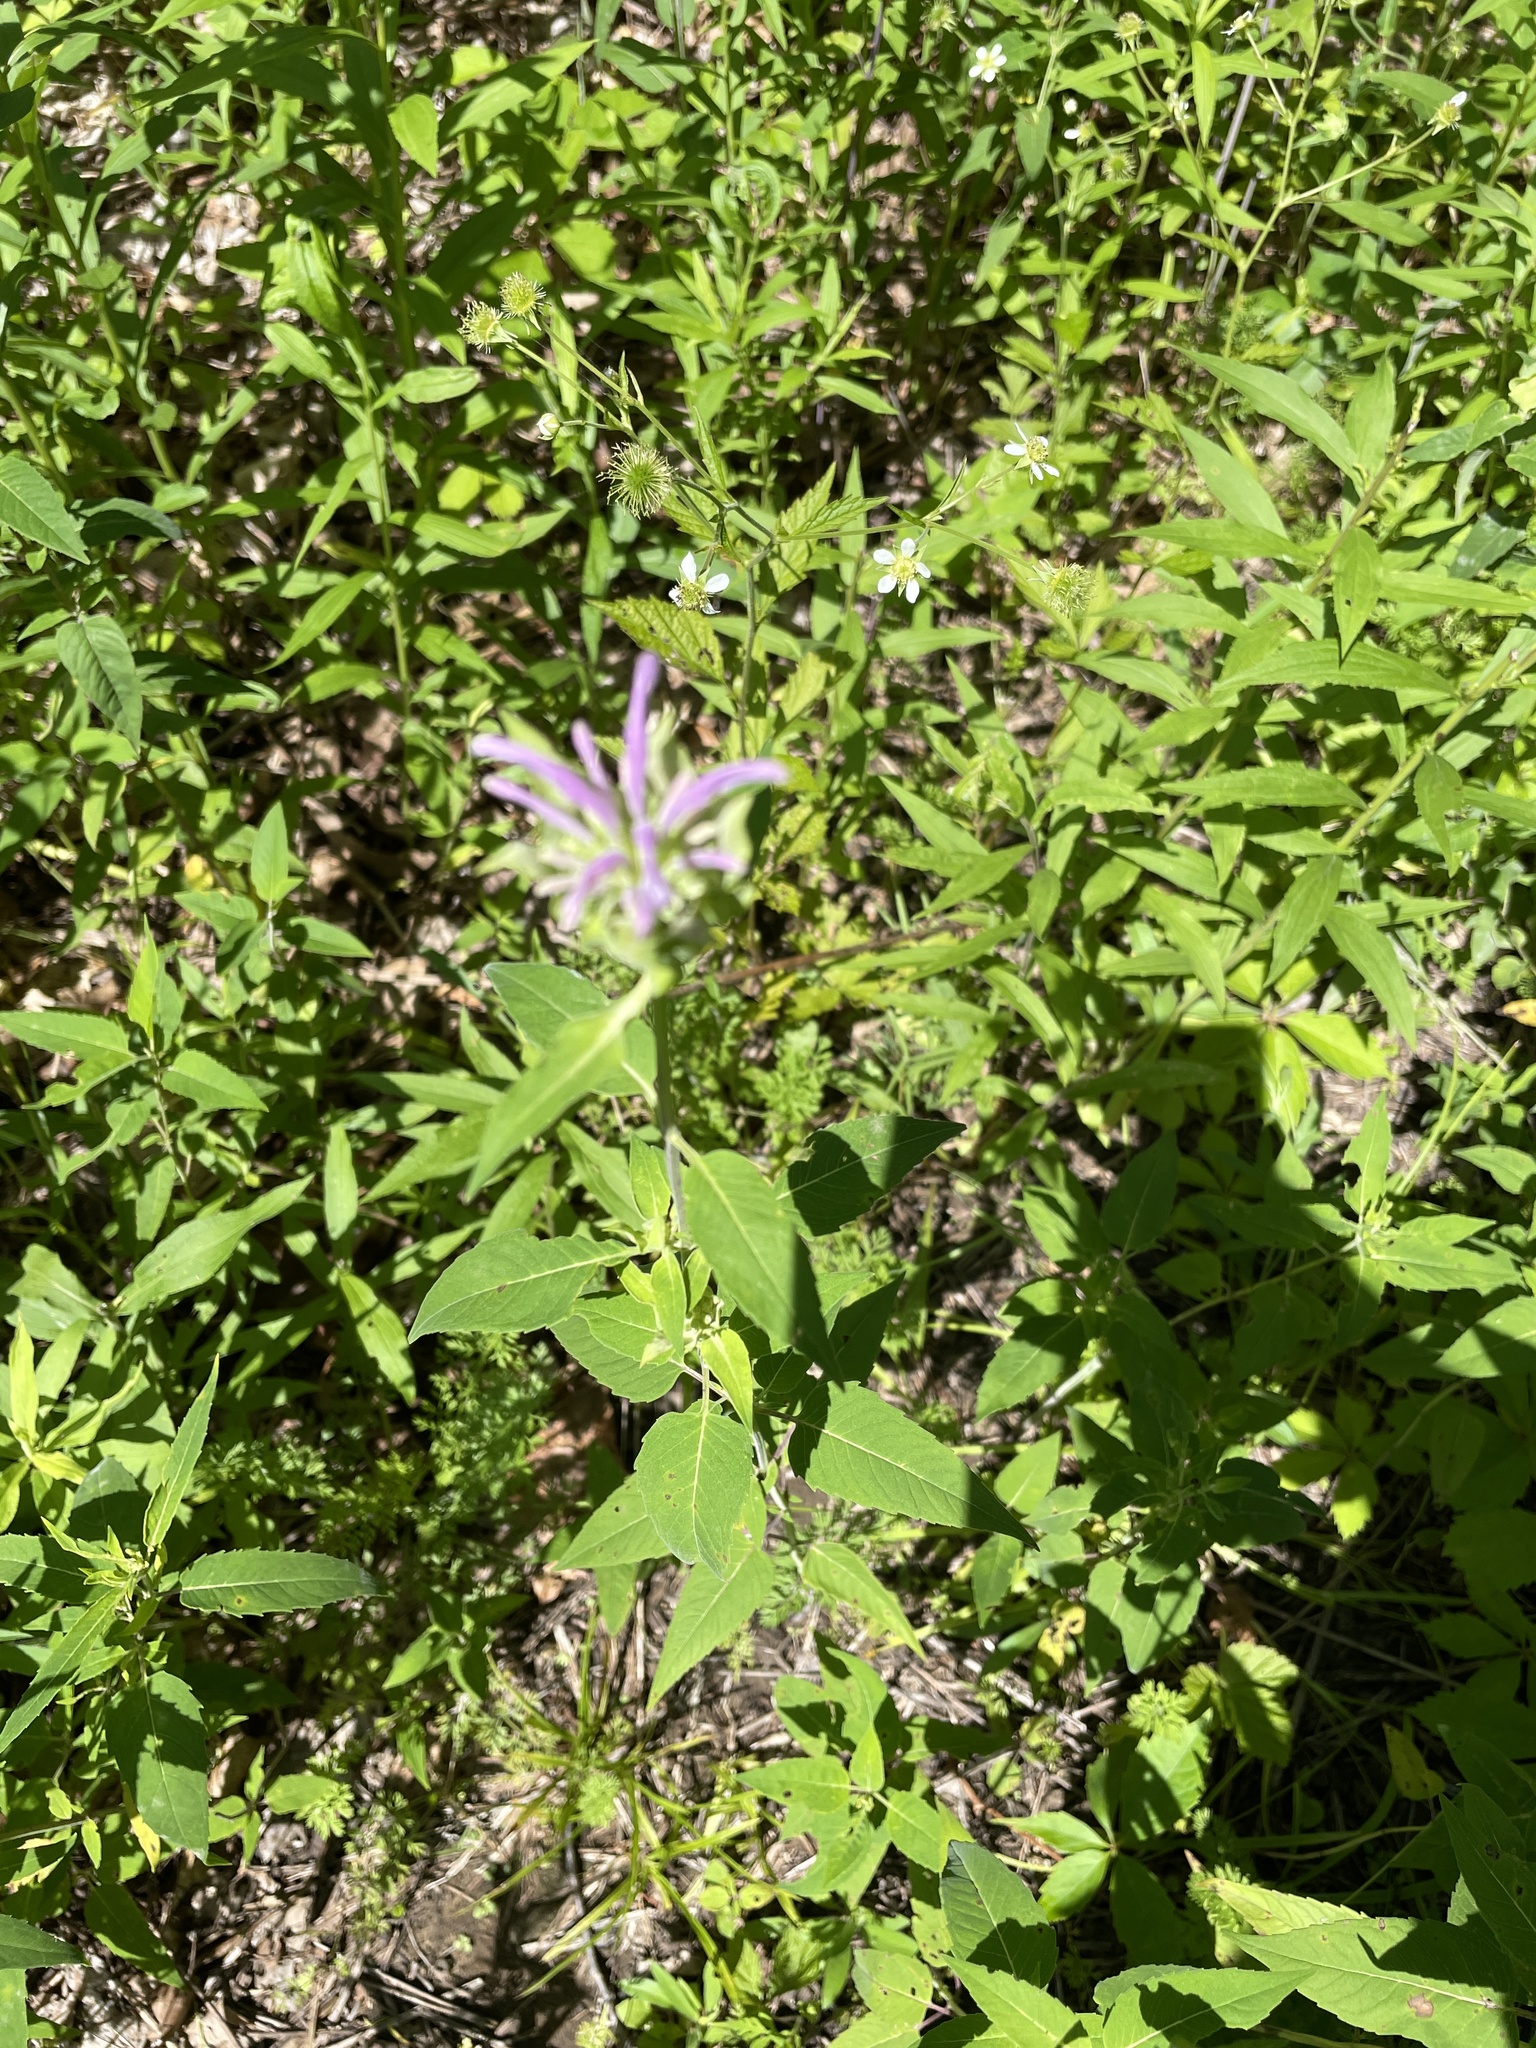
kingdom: Plantae
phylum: Tracheophyta
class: Magnoliopsida
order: Lamiales
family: Lamiaceae
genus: Monarda
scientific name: Monarda fistulosa
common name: Purple beebalm
